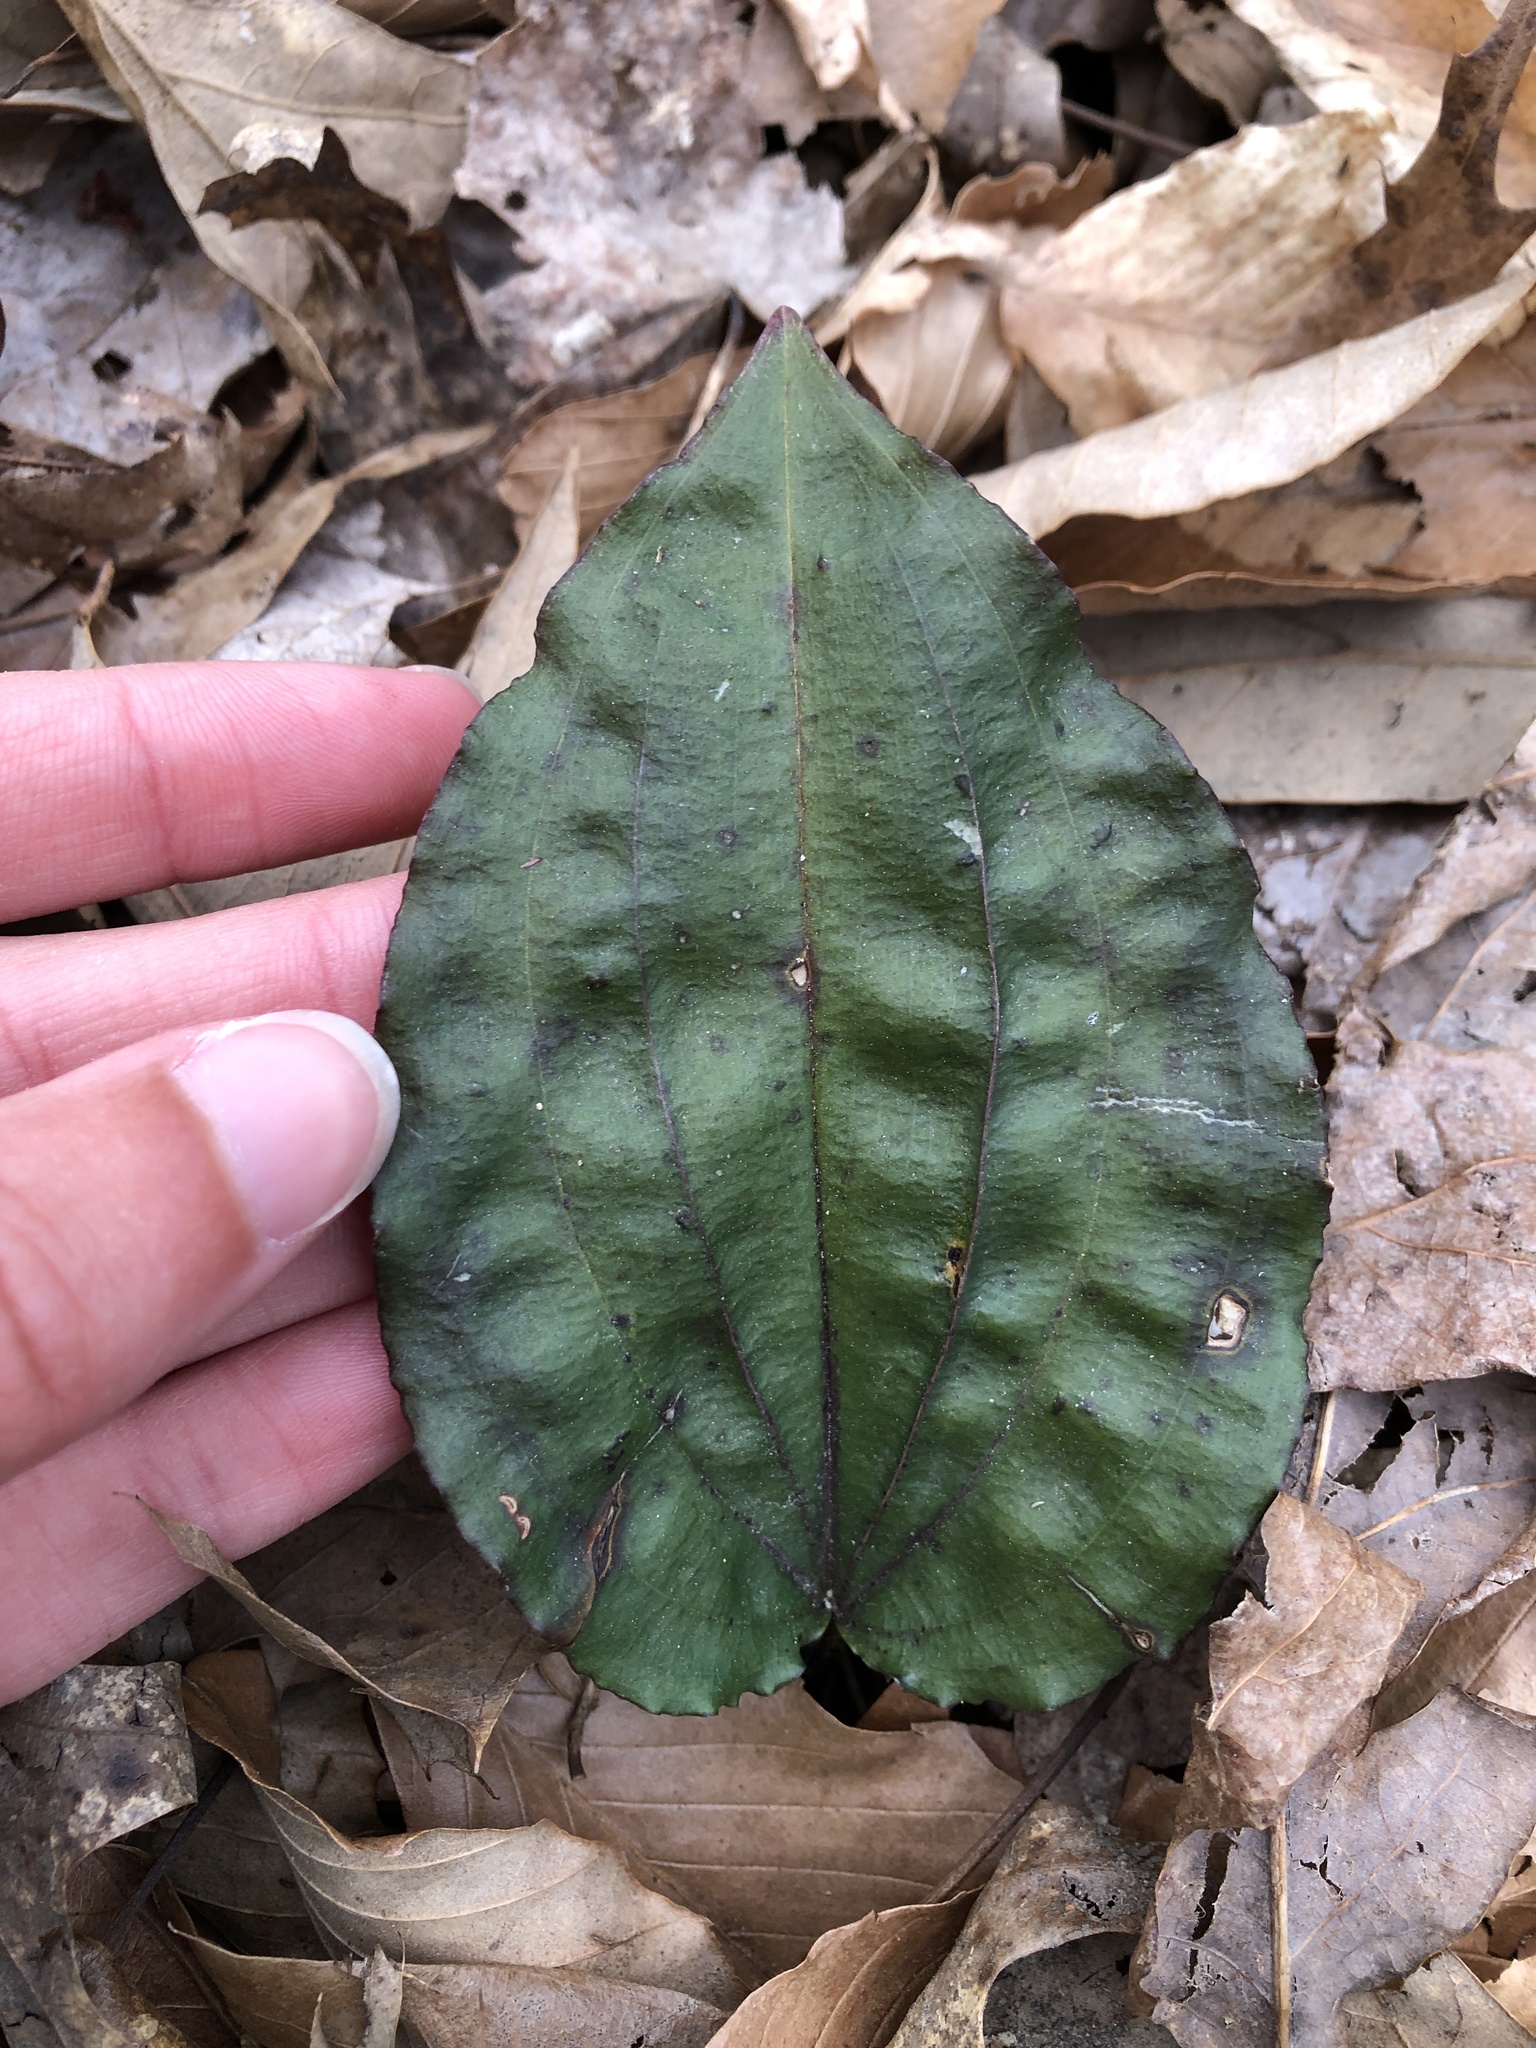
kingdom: Plantae
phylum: Tracheophyta
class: Liliopsida
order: Asparagales
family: Orchidaceae
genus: Tipularia
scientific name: Tipularia discolor
